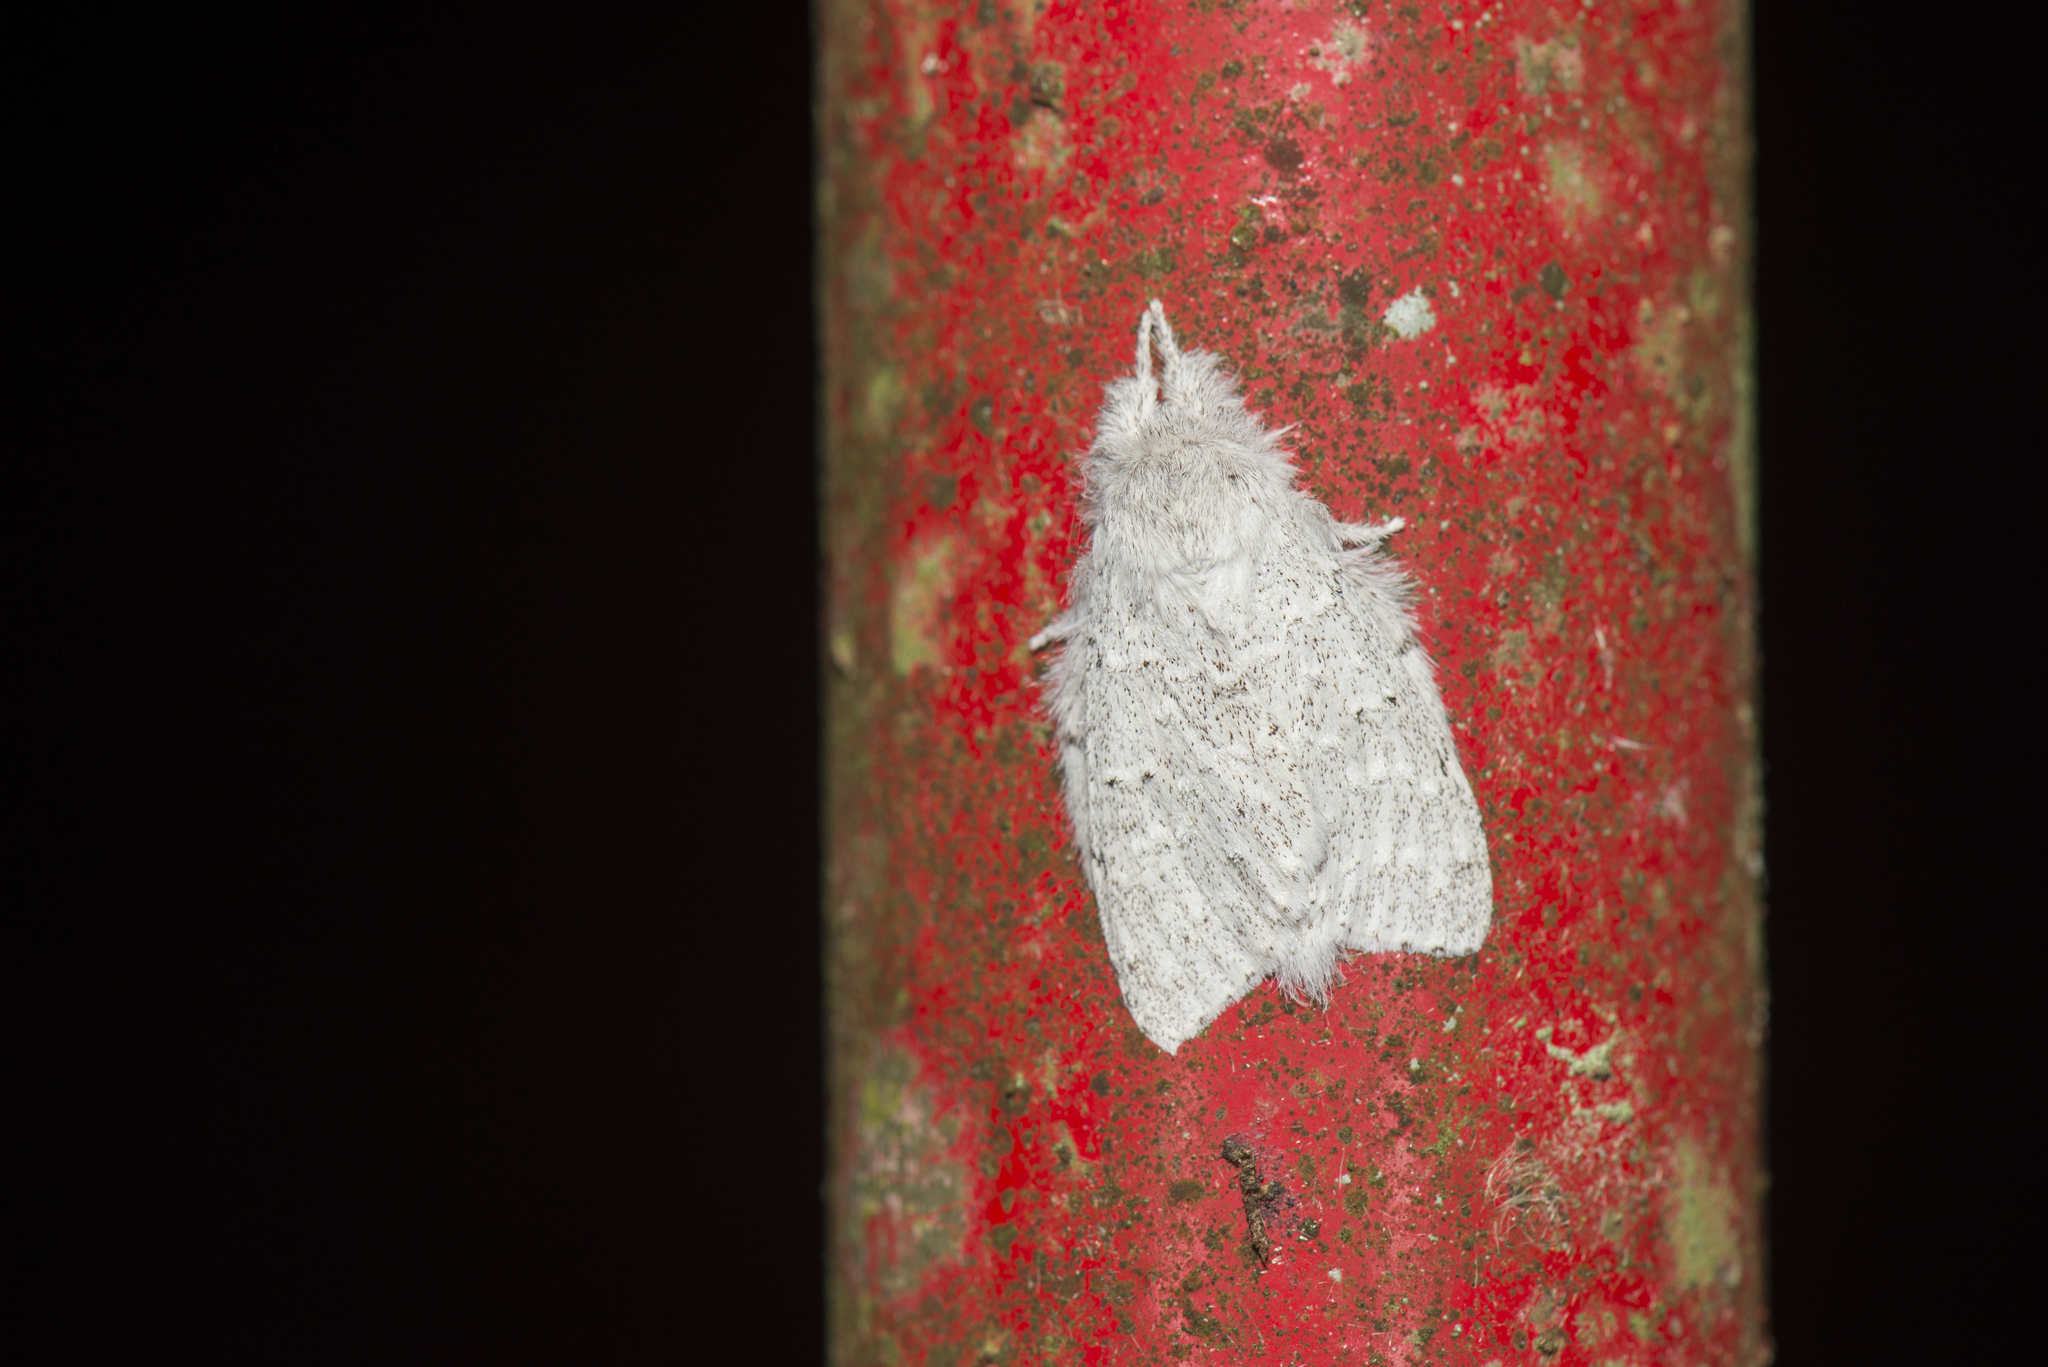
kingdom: Animalia
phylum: Arthropoda
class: Insecta
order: Lepidoptera
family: Notodontidae
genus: Cnethodonta
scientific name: Cnethodonta grisescens
